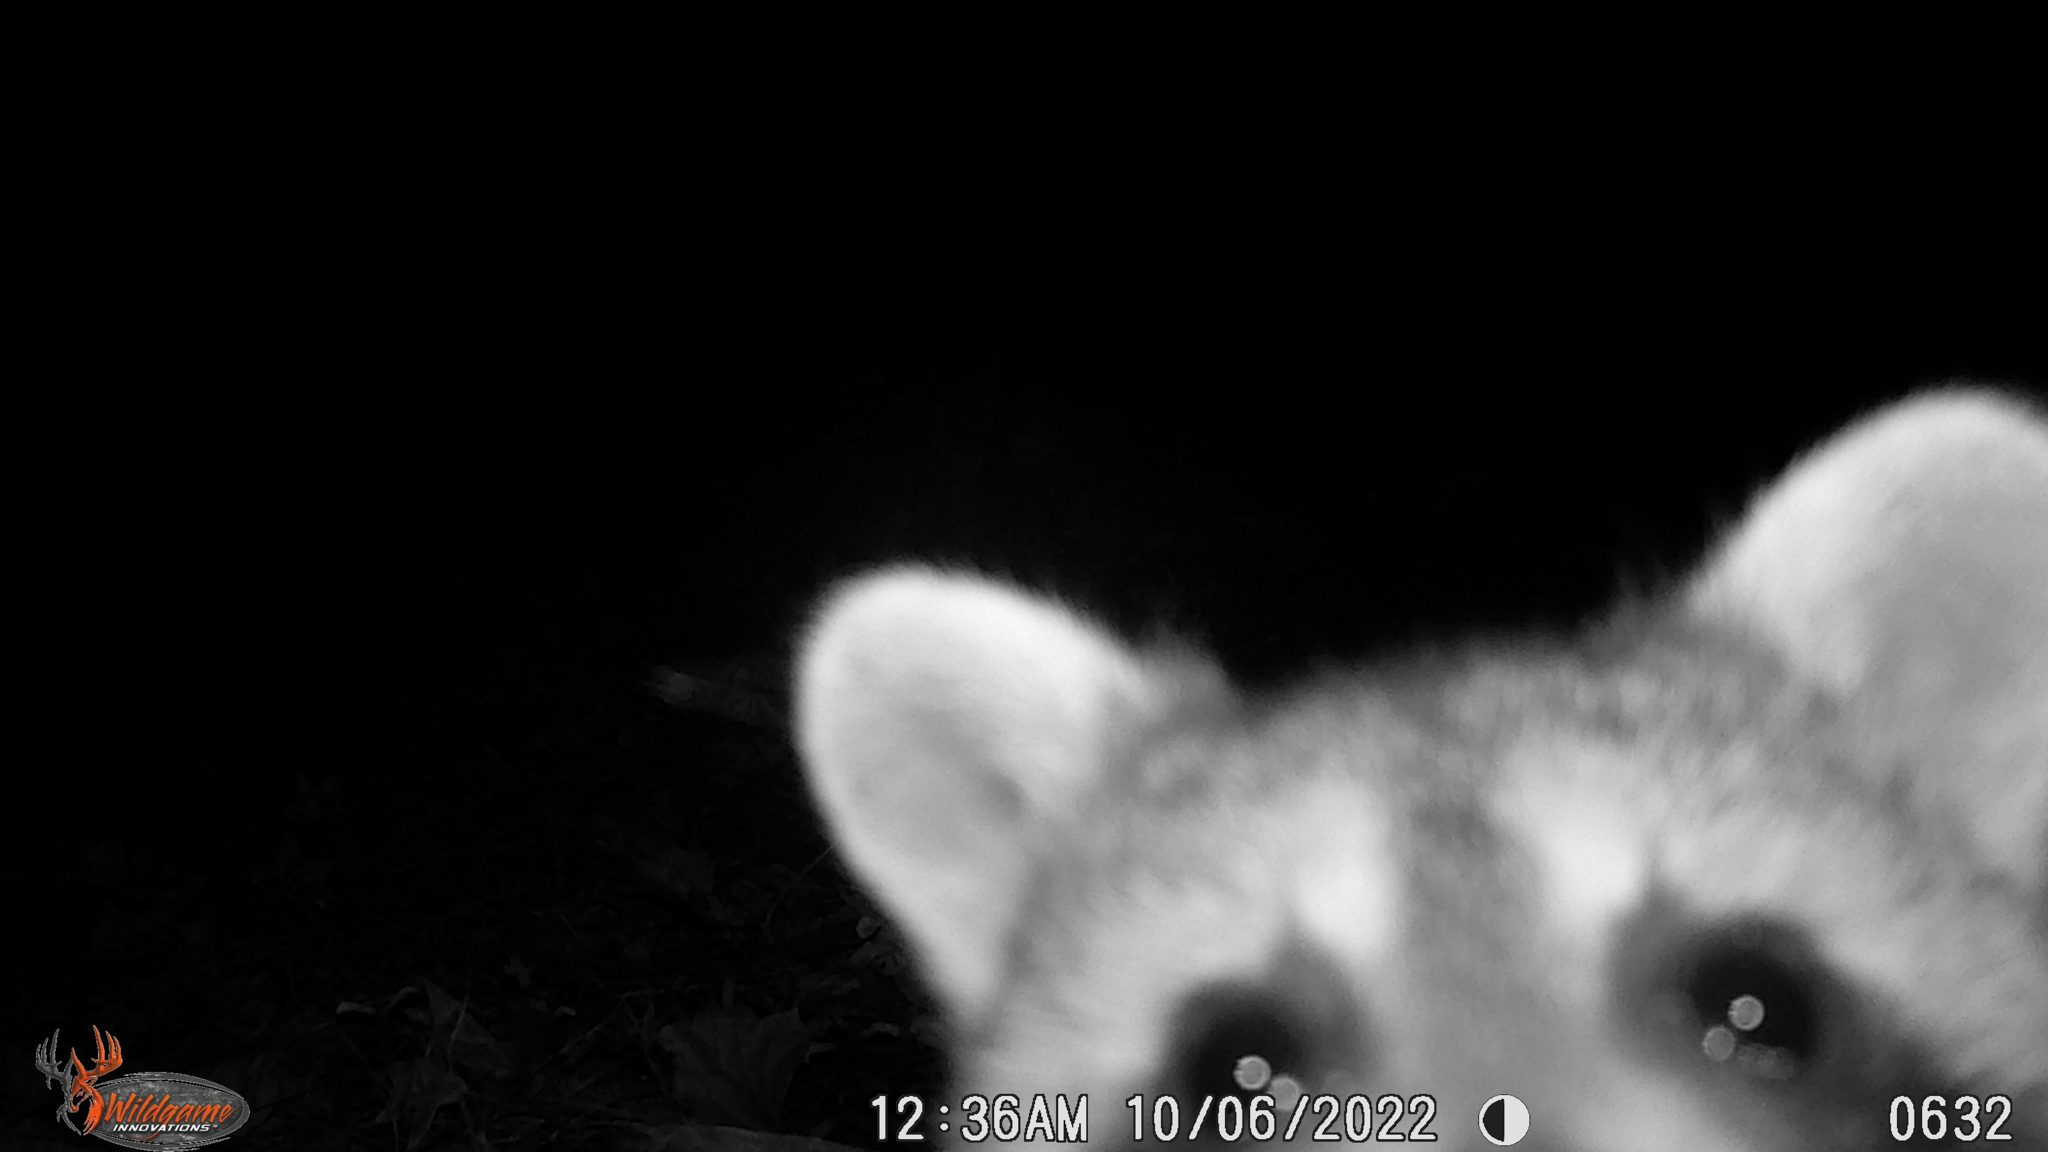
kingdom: Animalia
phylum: Chordata
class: Mammalia
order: Carnivora
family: Procyonidae
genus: Procyon
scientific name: Procyon lotor
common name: Raccoon
